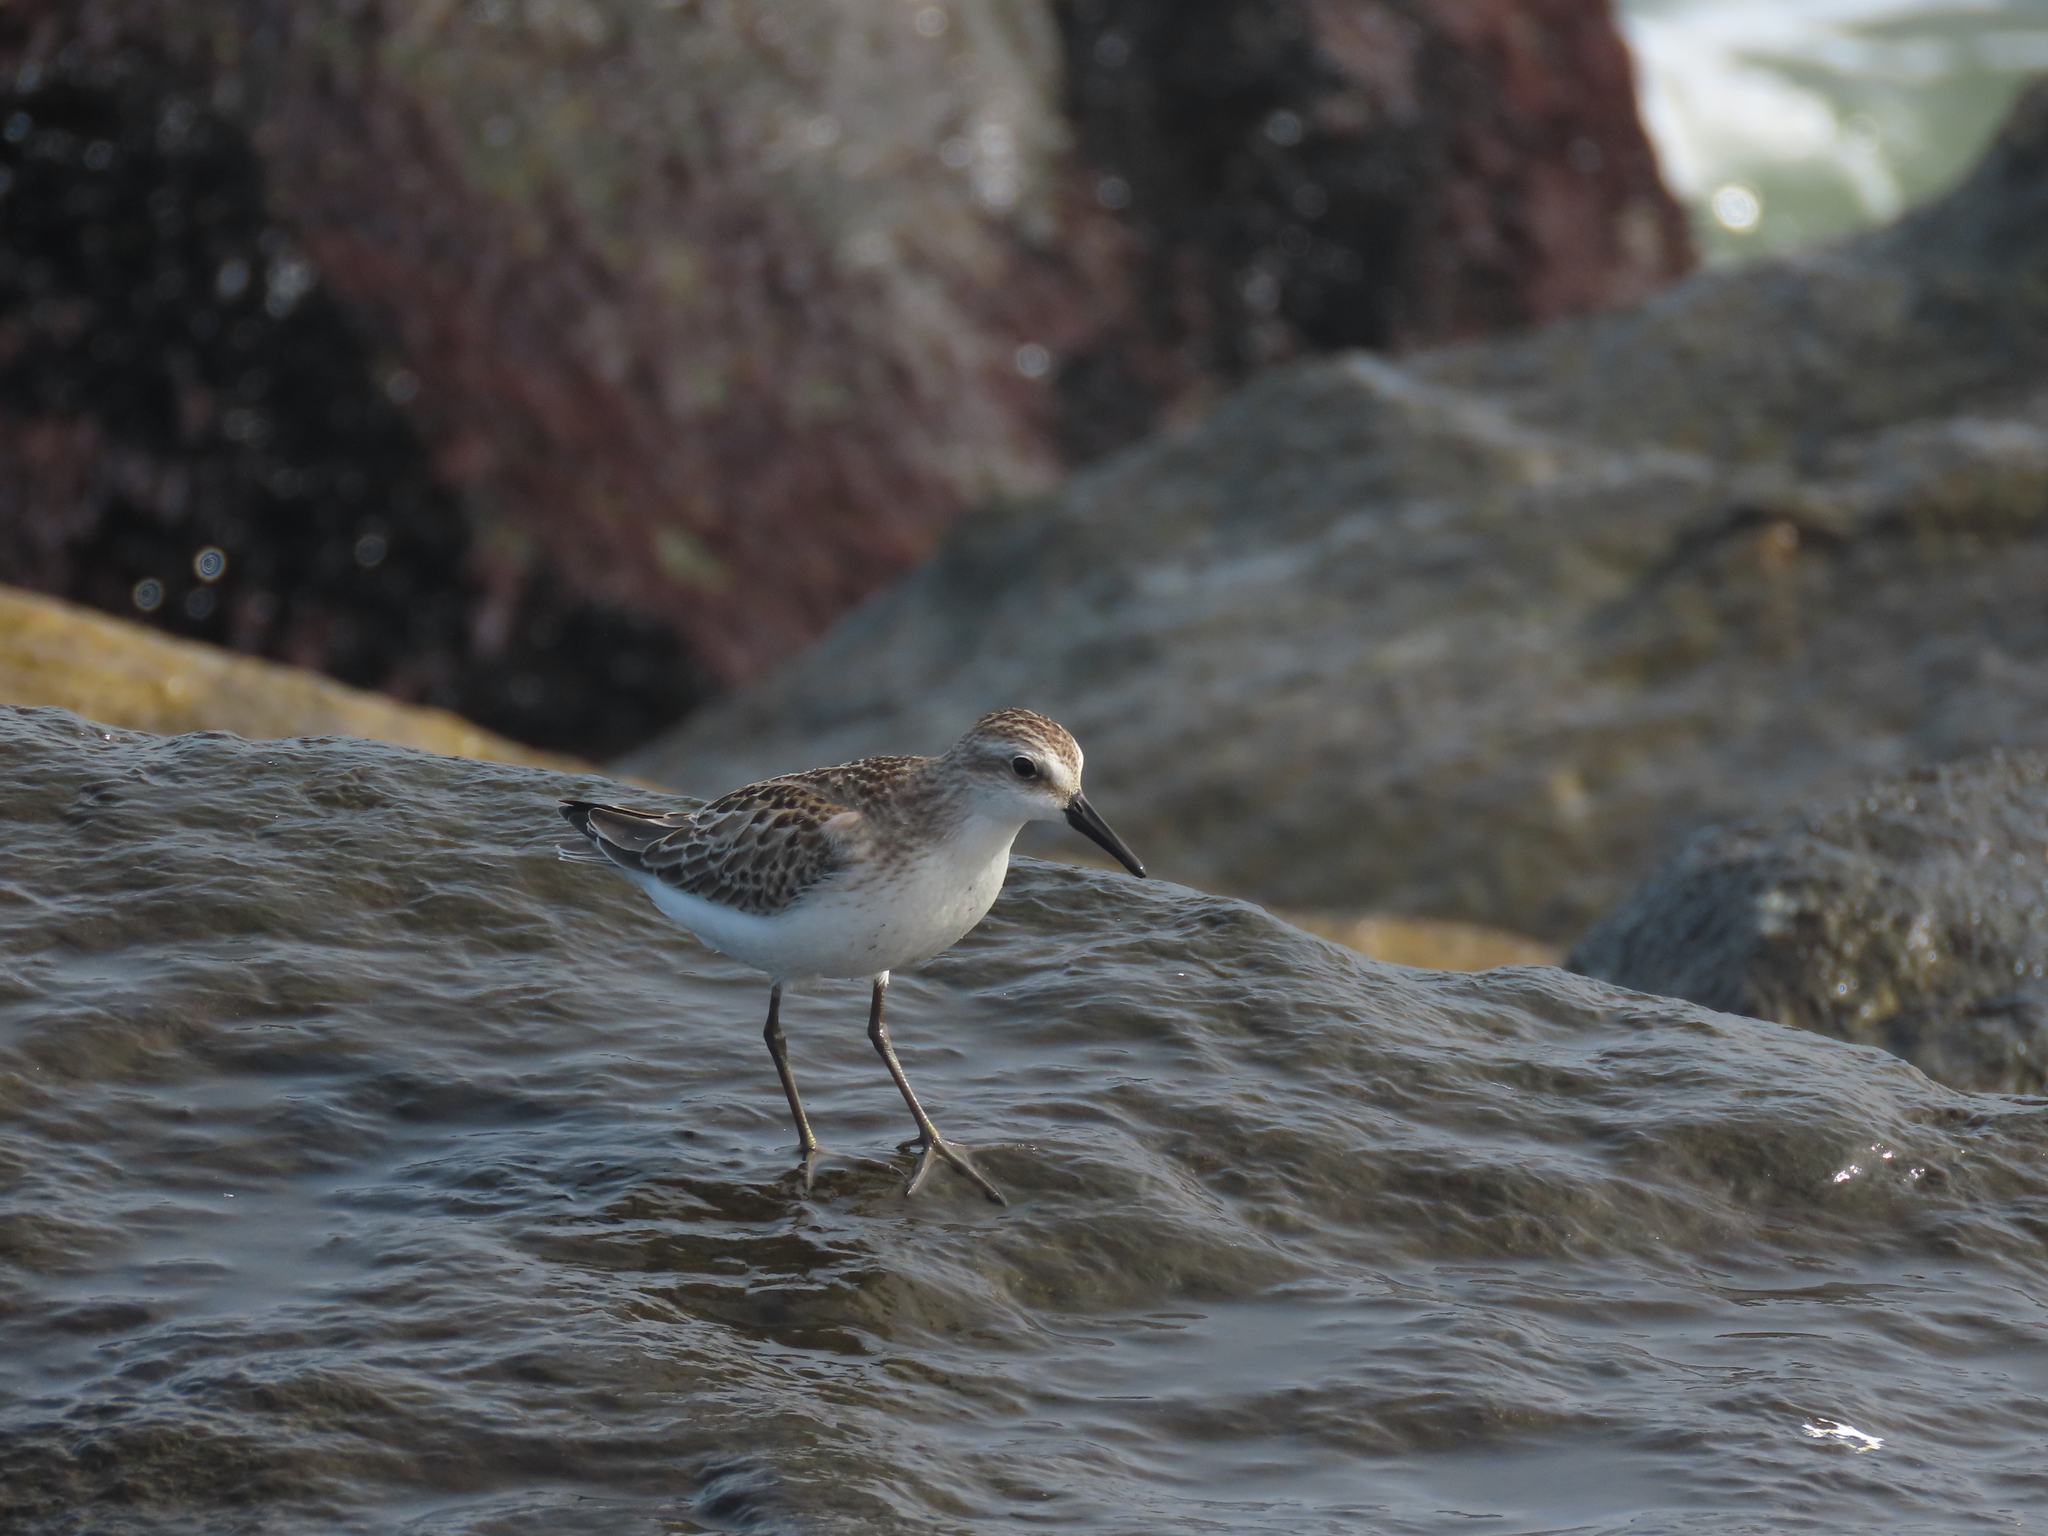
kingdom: Animalia
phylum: Chordata
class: Aves
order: Charadriiformes
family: Scolopacidae
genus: Calidris
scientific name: Calidris pusilla
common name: Semipalmated sandpiper
